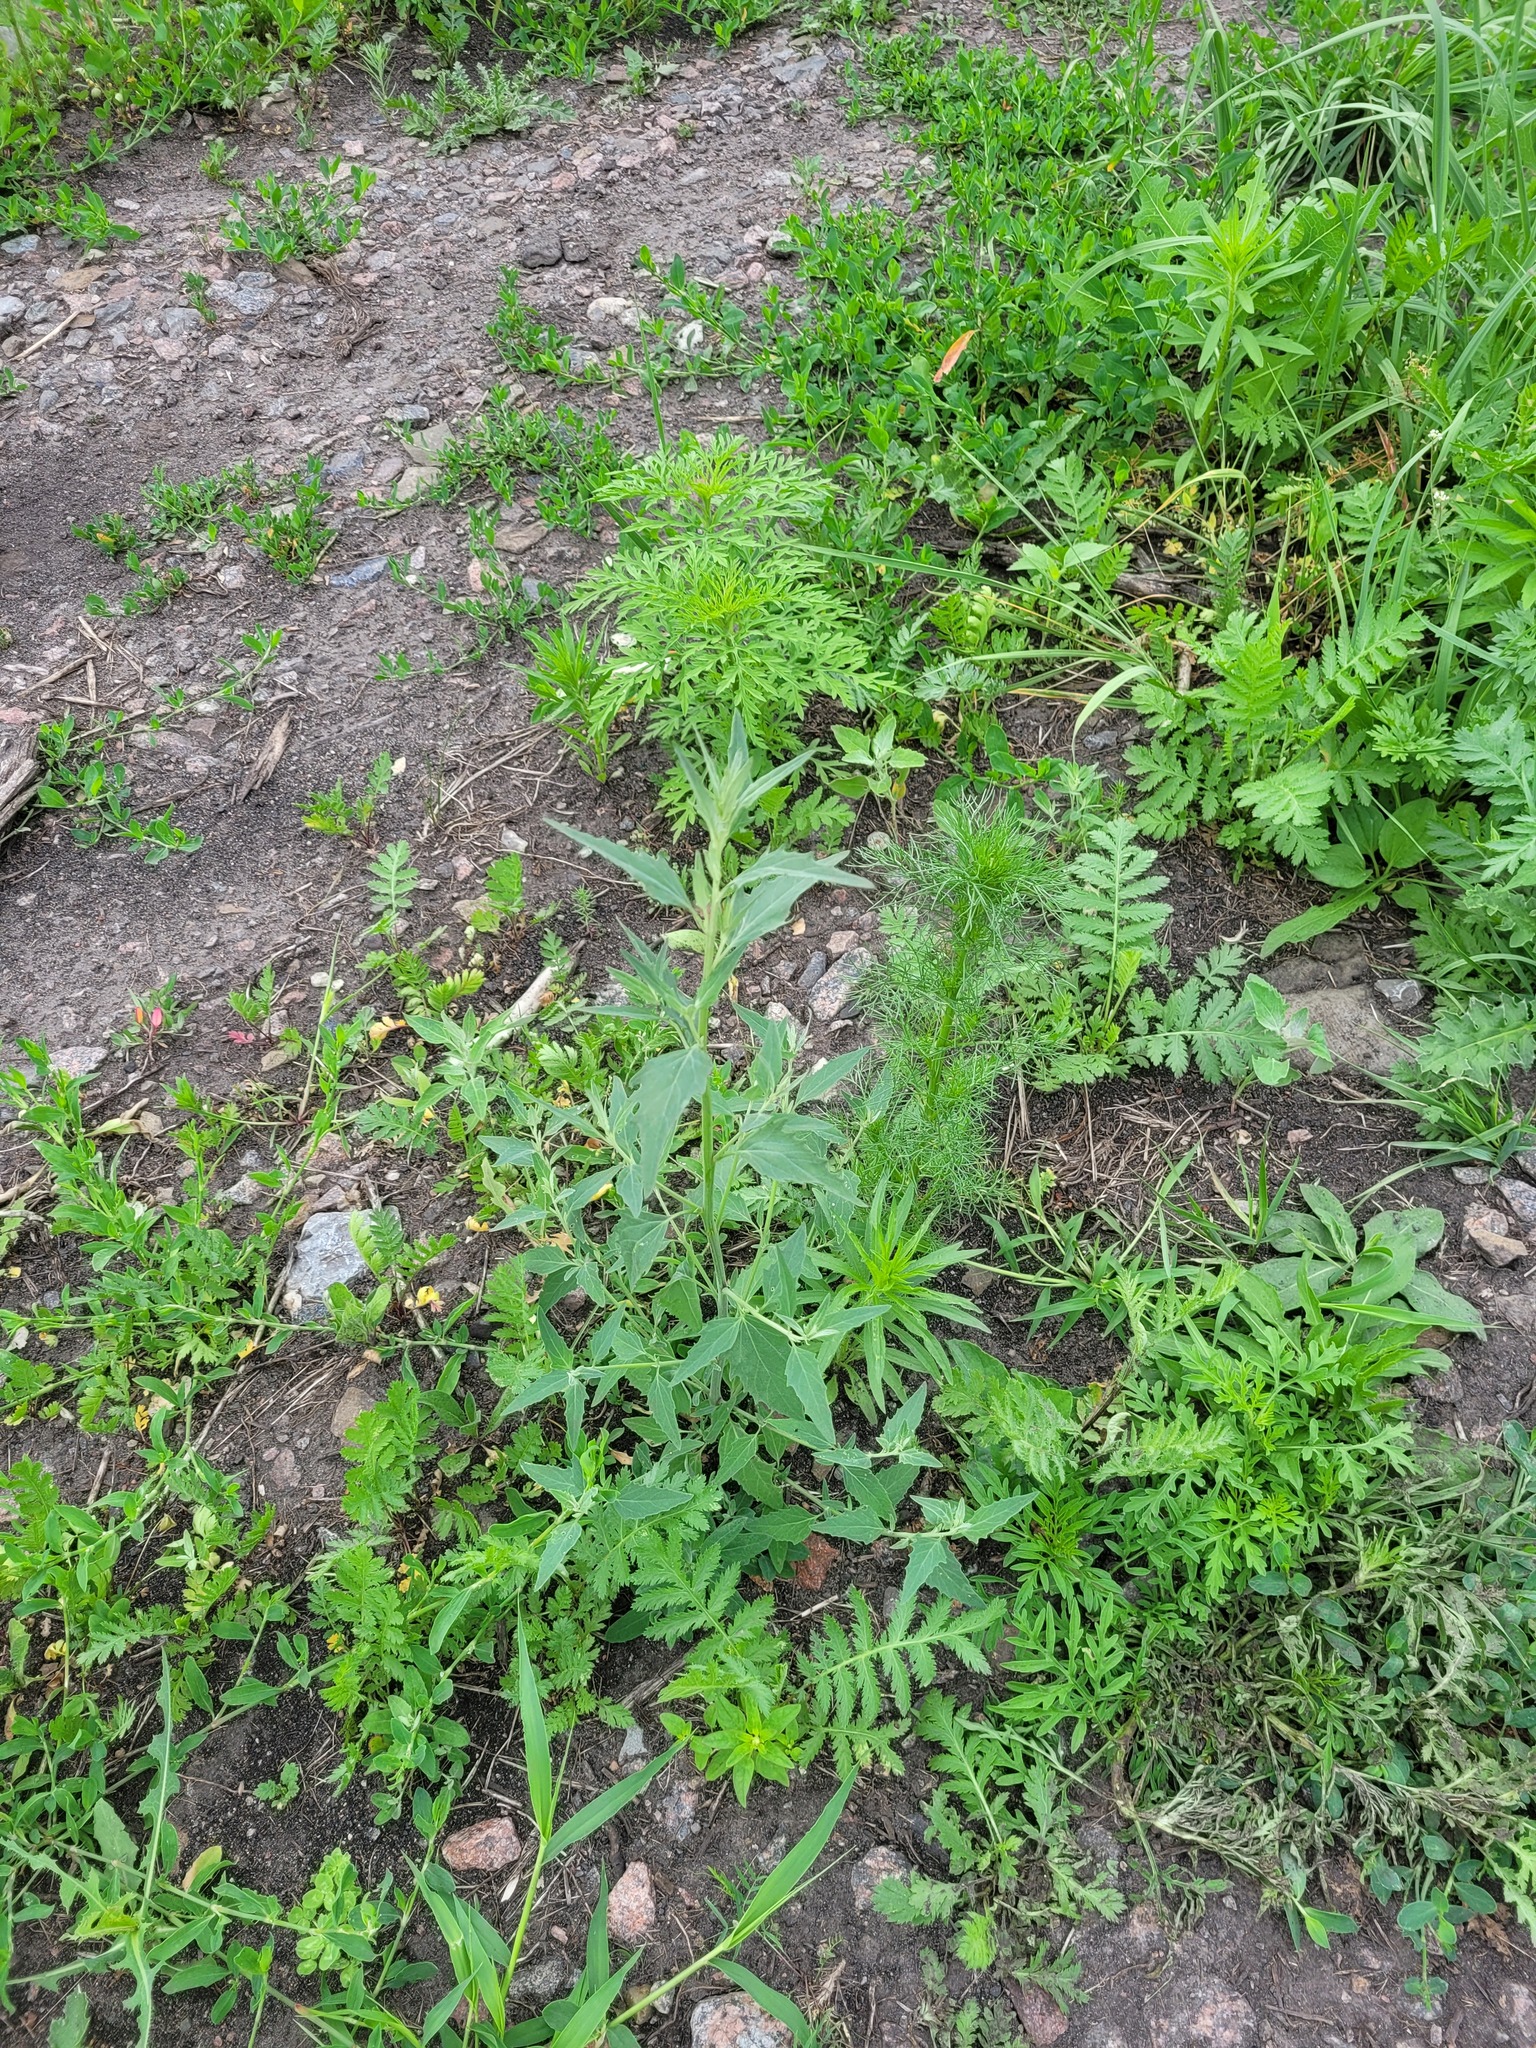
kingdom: Plantae
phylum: Tracheophyta
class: Magnoliopsida
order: Caryophyllales
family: Amaranthaceae
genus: Atriplex
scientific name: Atriplex oblongifolia
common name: Oblongleaf orache
